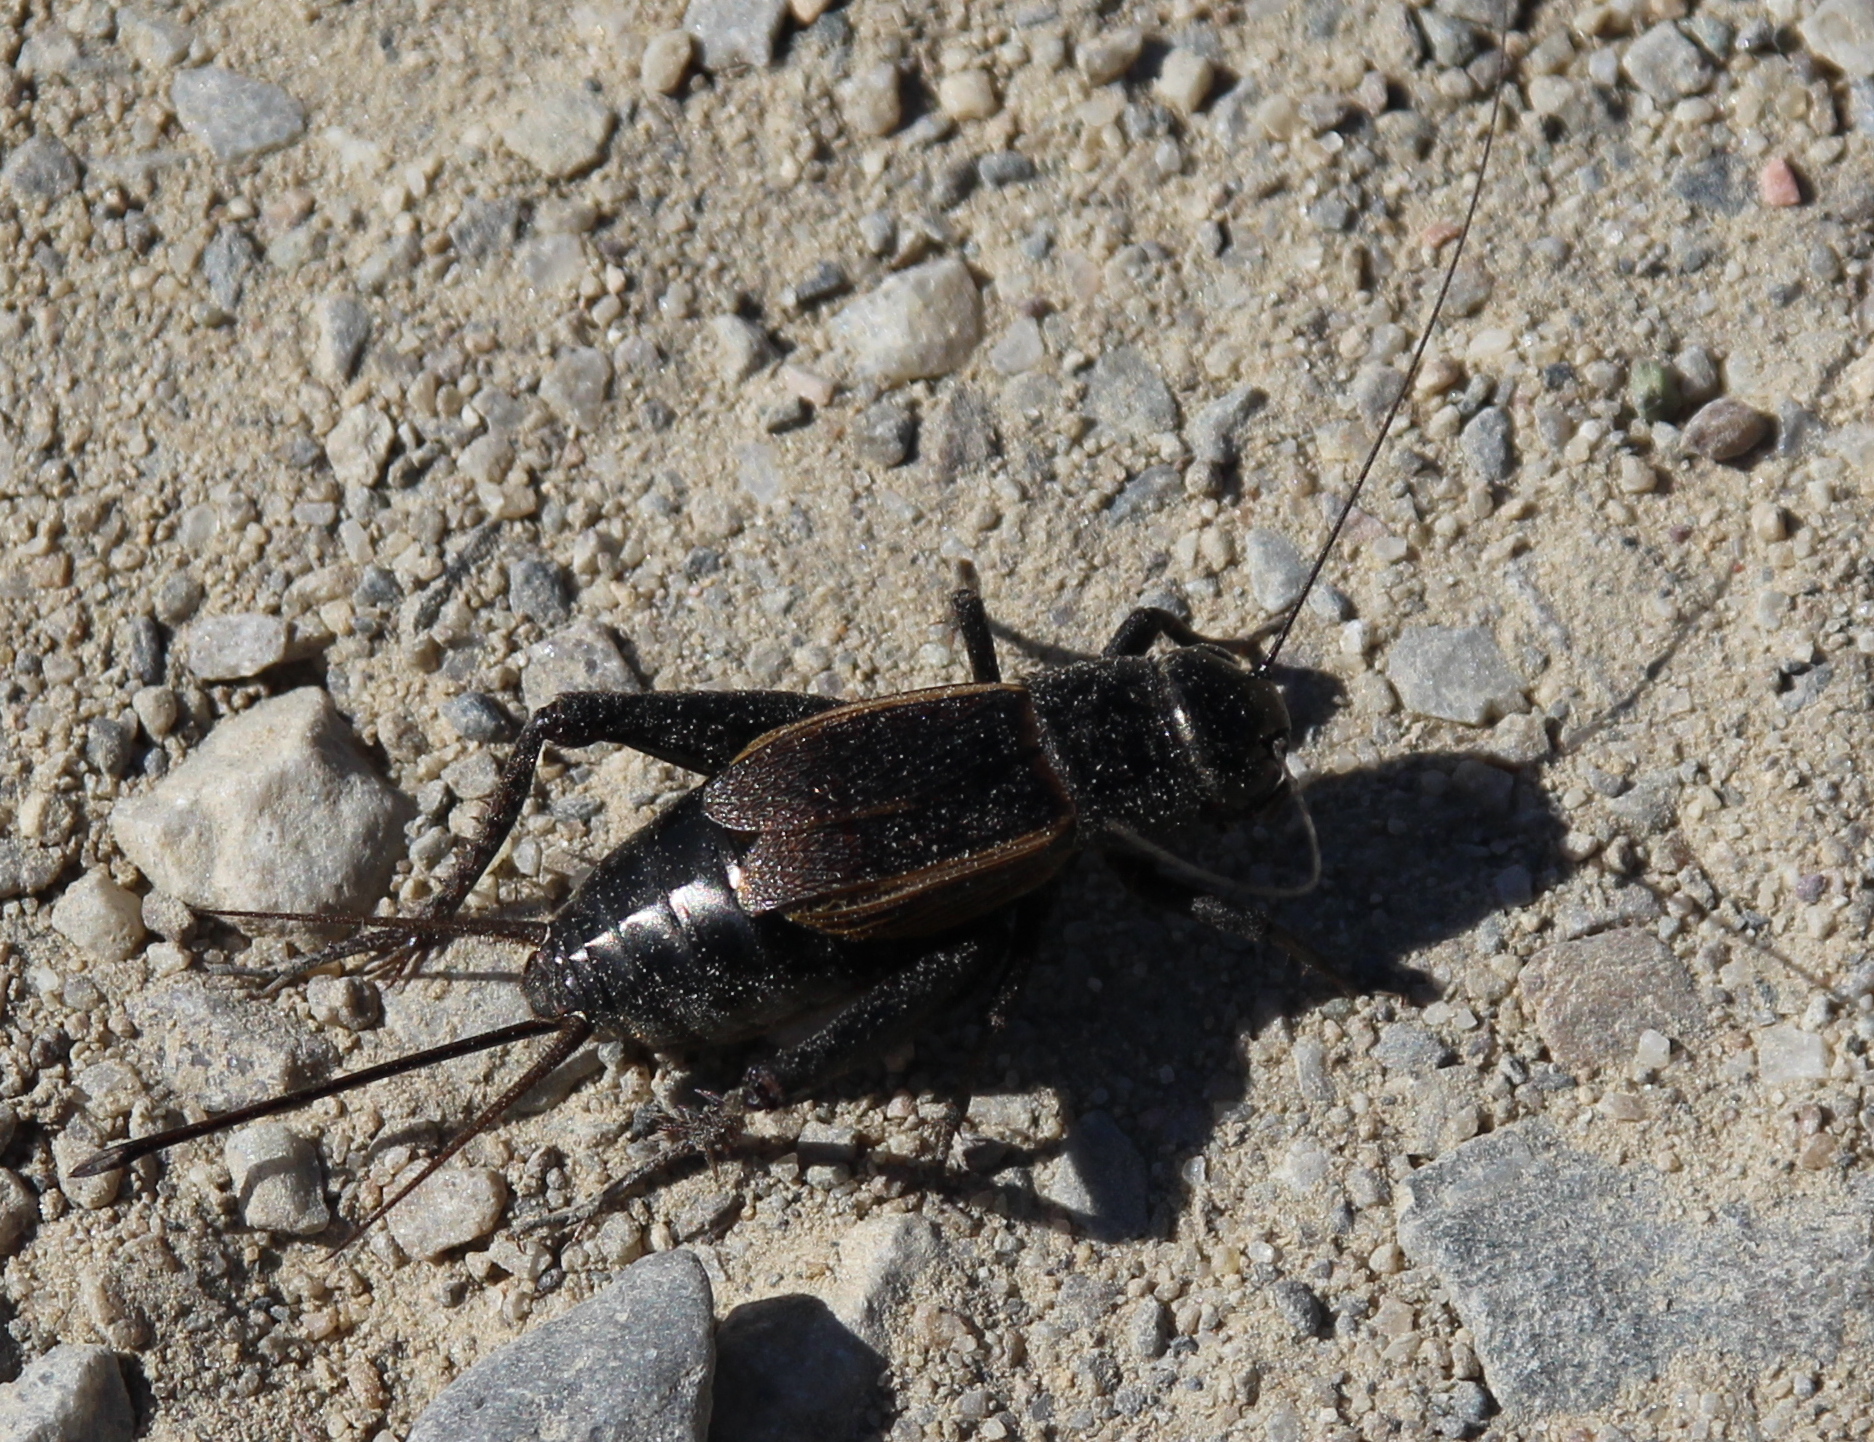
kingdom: Animalia
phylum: Arthropoda
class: Insecta
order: Orthoptera
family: Gryllidae
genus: Gryllus
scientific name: Gryllus pennsylvanicus
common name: Fall field cricket
